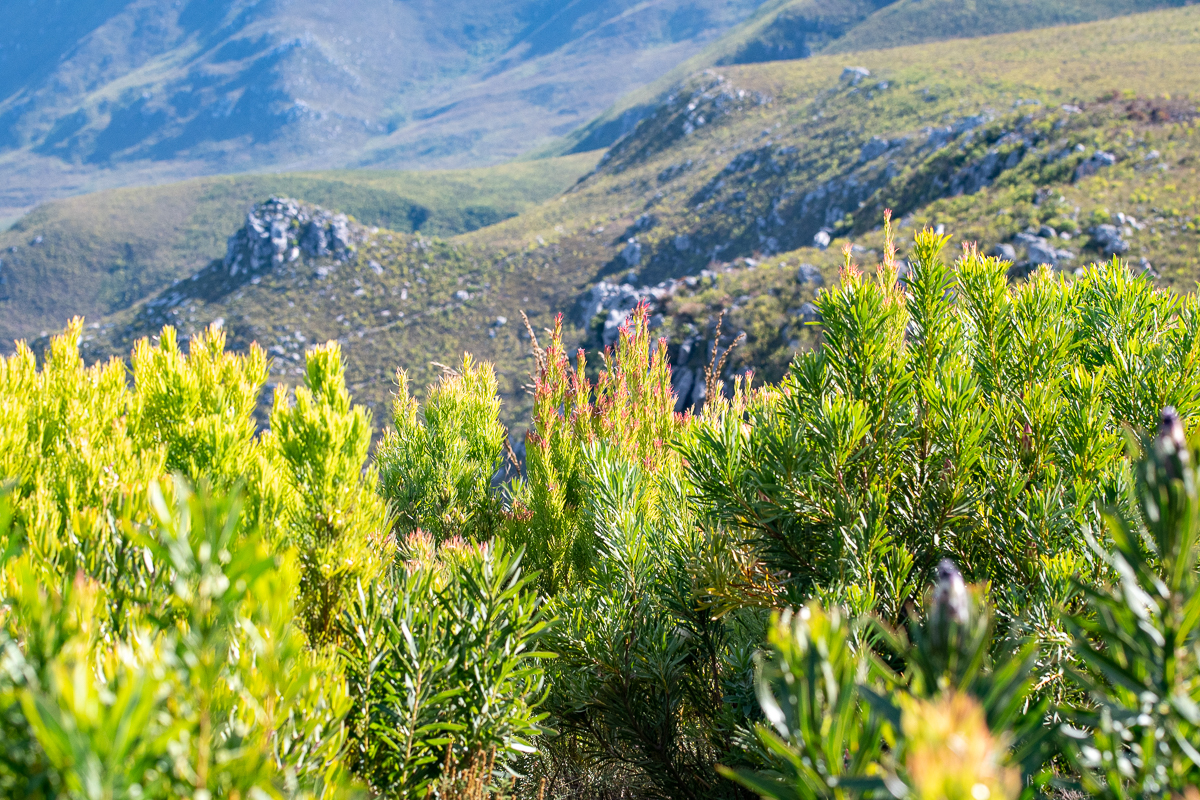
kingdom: Plantae
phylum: Tracheophyta
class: Magnoliopsida
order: Proteales
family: Proteaceae
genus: Leucadendron
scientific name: Leucadendron xanthoconus
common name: Sickle-leaf conebush
